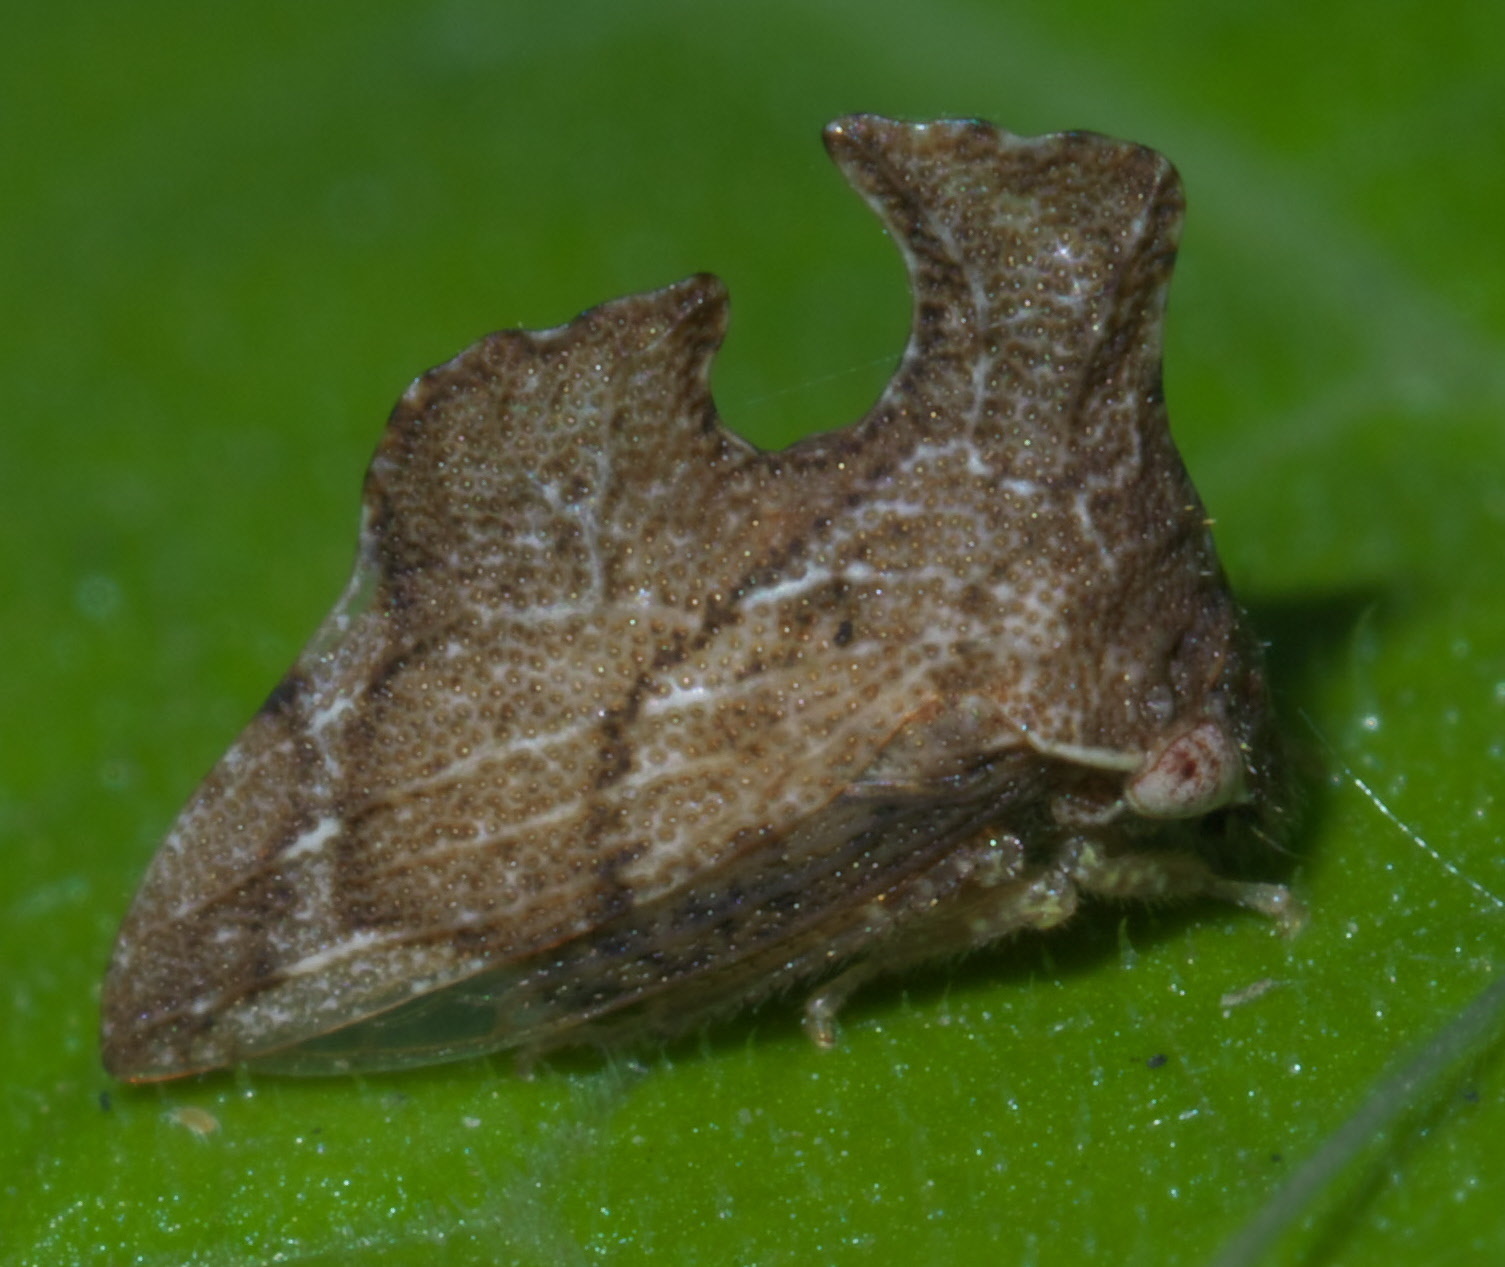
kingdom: Animalia
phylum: Arthropoda
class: Insecta
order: Hemiptera
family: Membracidae
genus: Entylia
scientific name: Entylia carinata
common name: Keeled treehopper
